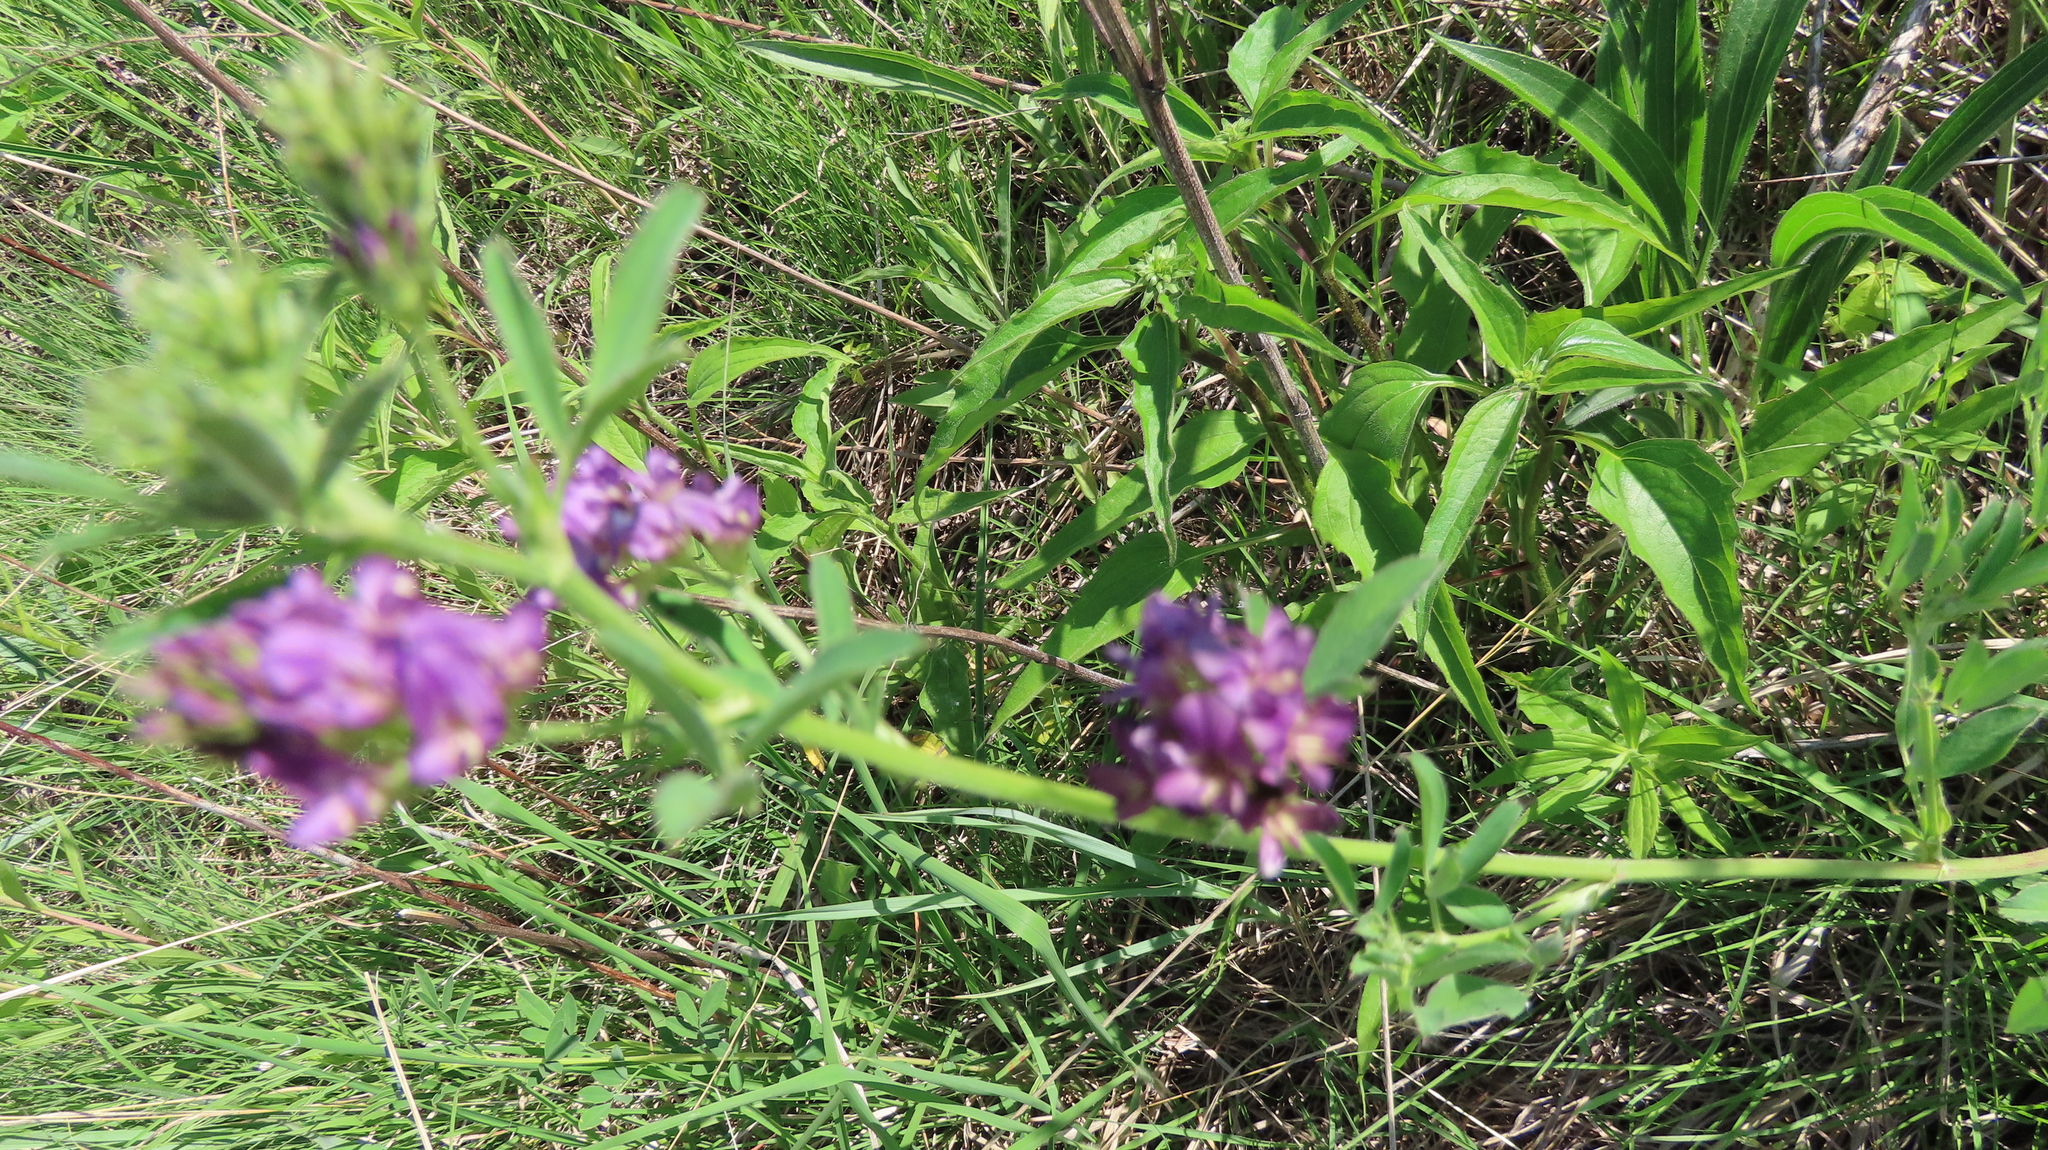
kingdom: Plantae
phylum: Tracheophyta
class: Magnoliopsida
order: Fabales
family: Fabaceae
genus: Medicago
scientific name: Medicago sativa
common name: Alfalfa
